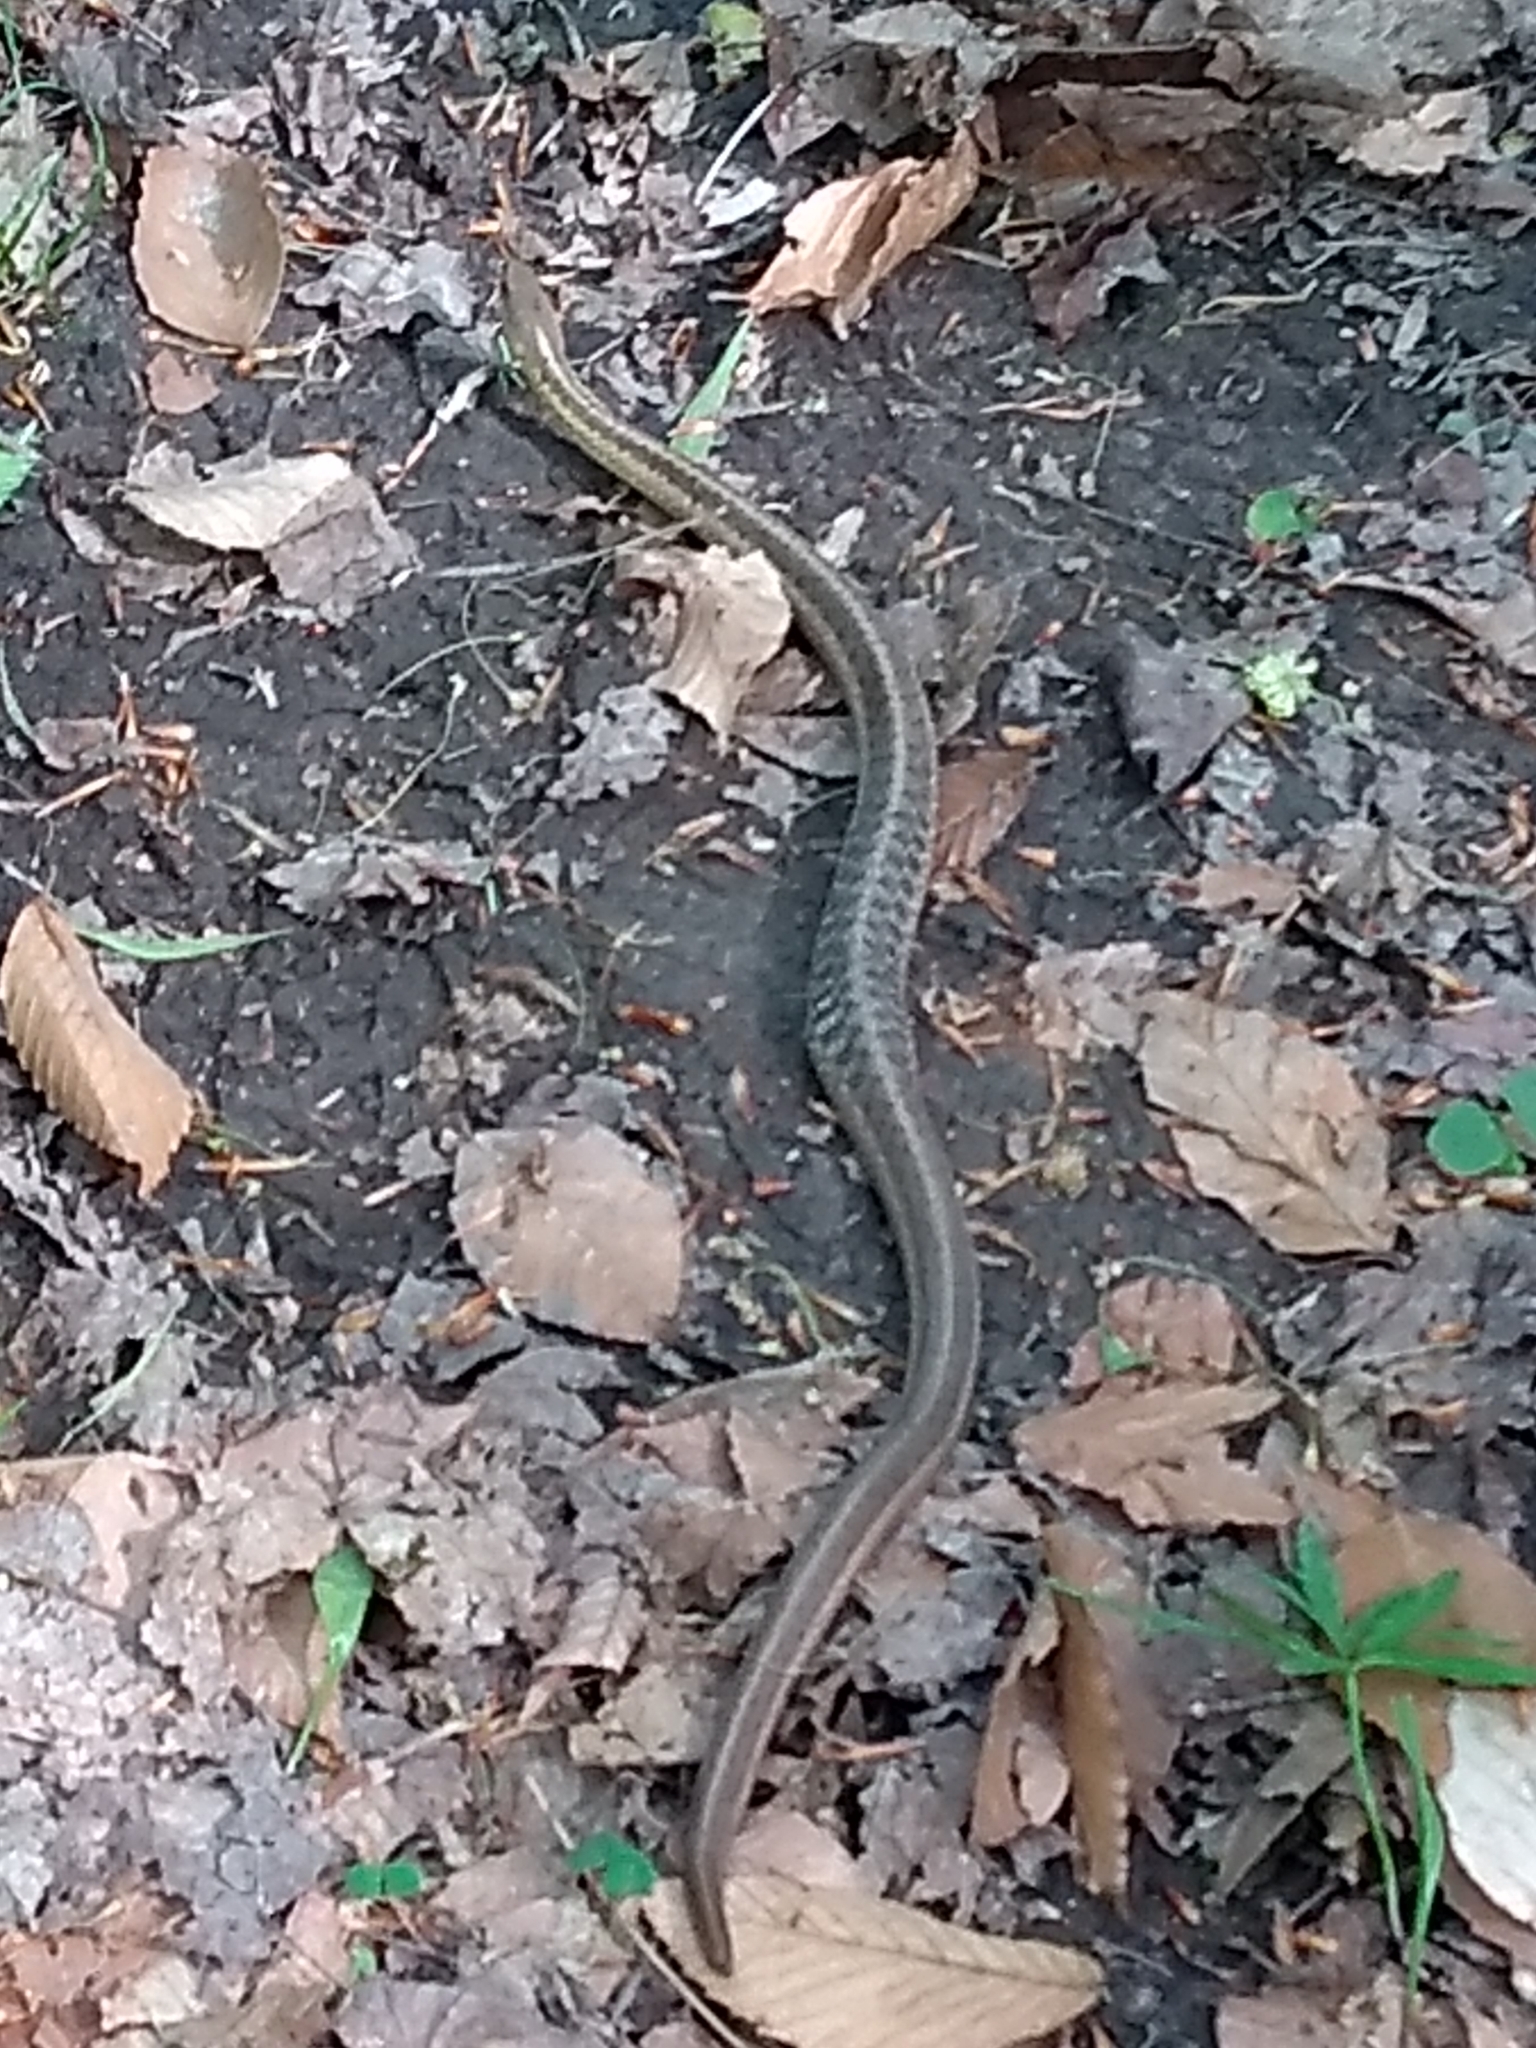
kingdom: Animalia
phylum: Chordata
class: Squamata
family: Colubridae
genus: Thamnophis
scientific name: Thamnophis sirtalis
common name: Common garter snake
